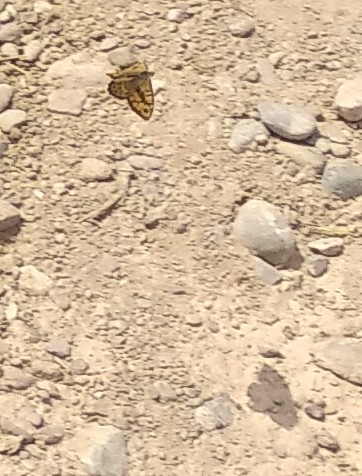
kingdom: Animalia
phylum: Arthropoda
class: Insecta
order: Lepidoptera
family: Nymphalidae
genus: Pararge
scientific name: Pararge Lasiommata megera
